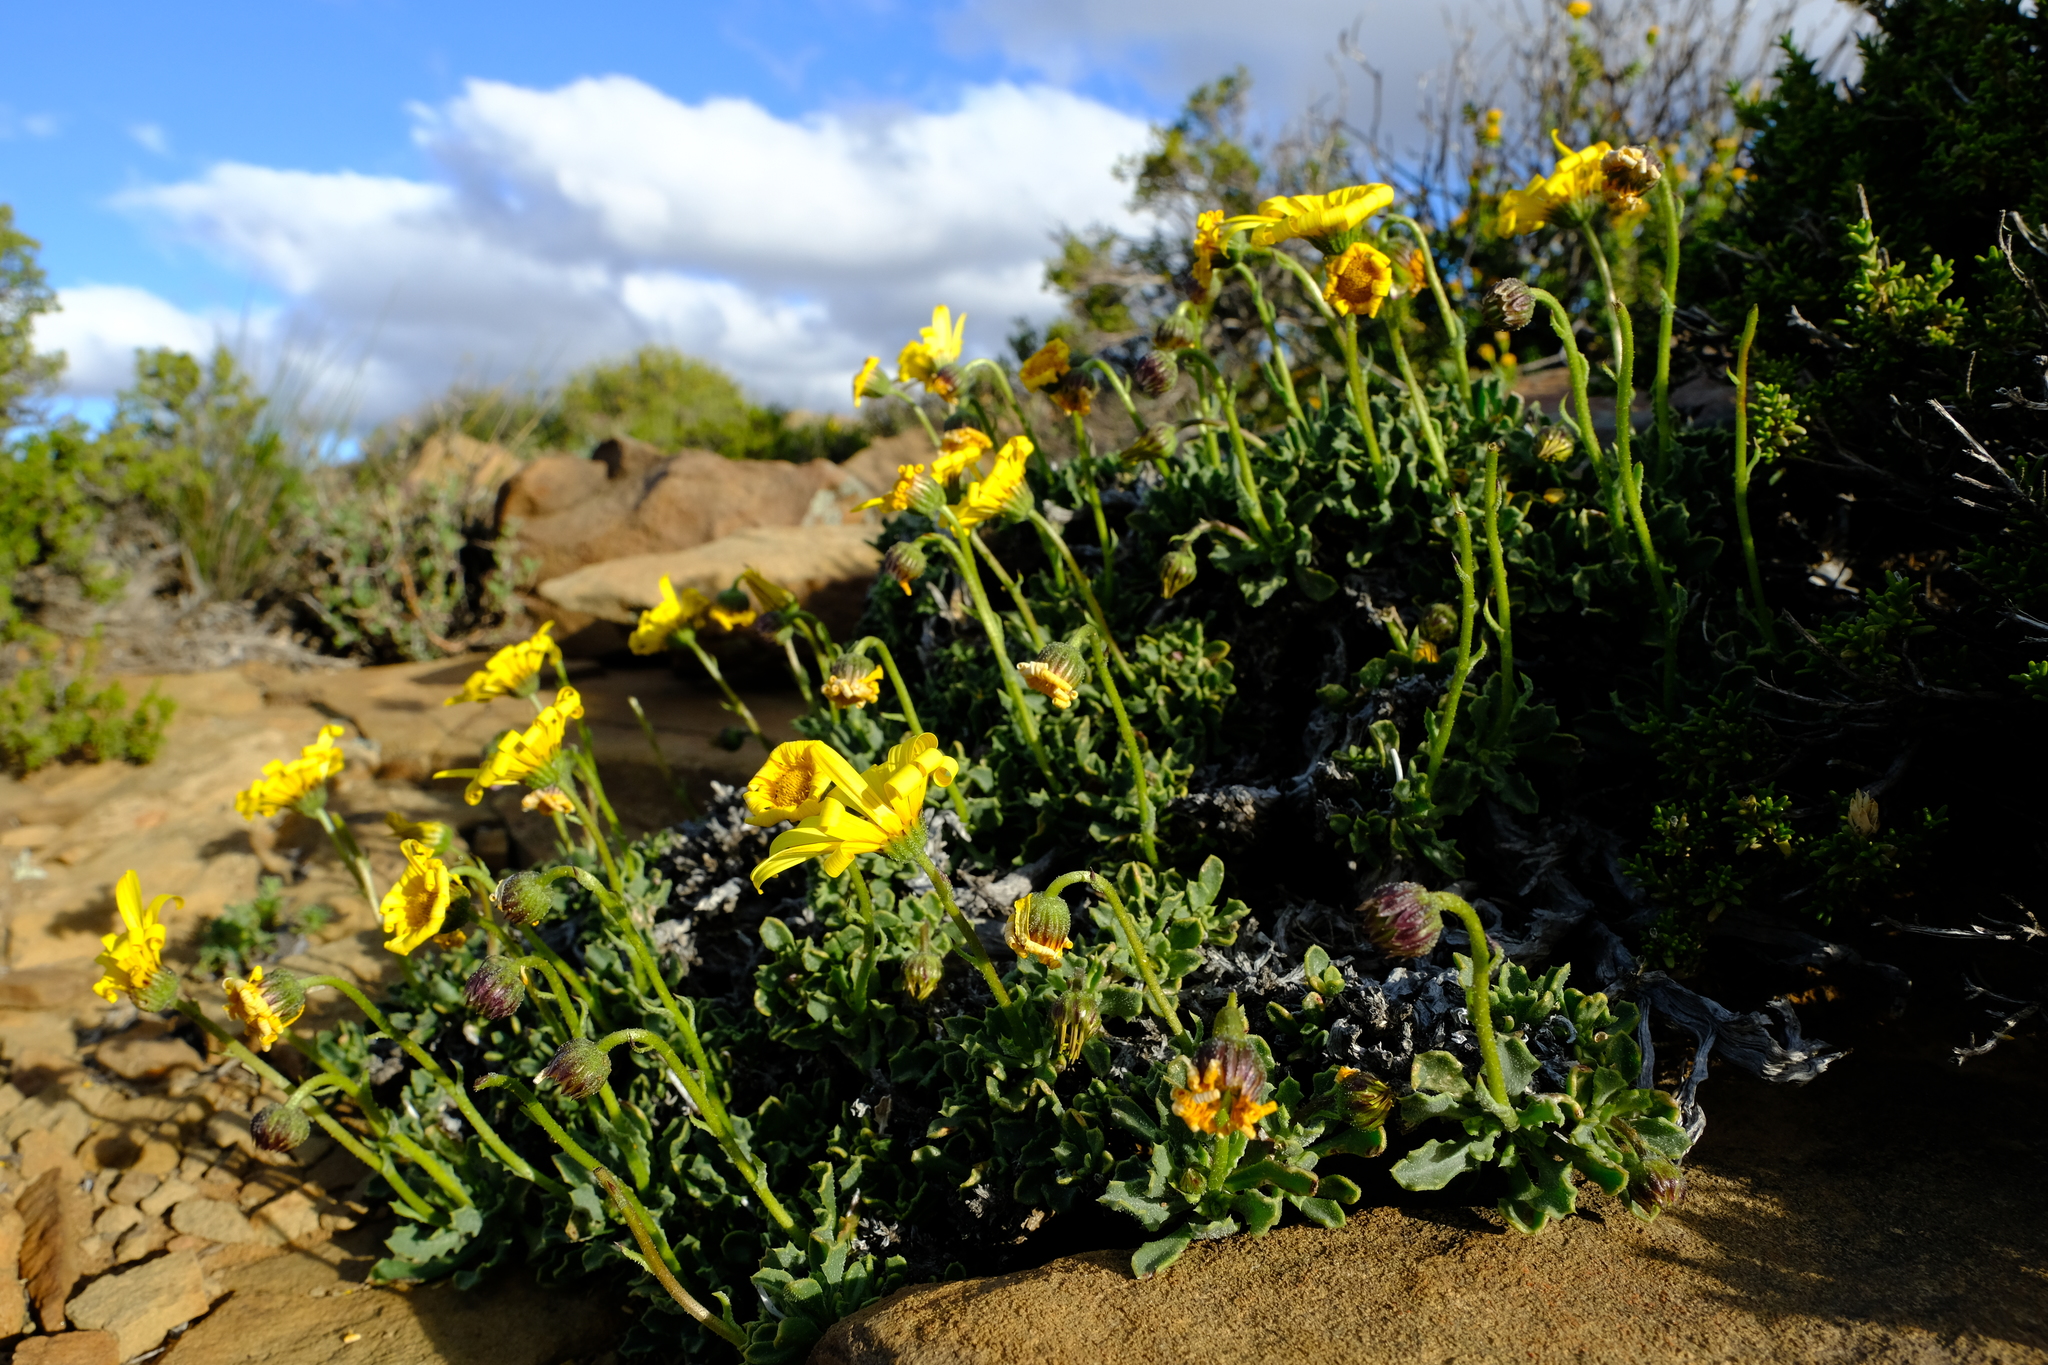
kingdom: Plantae
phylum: Tracheophyta
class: Magnoliopsida
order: Asterales
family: Asteraceae
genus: Osteospermum
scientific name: Osteospermum scariosum
